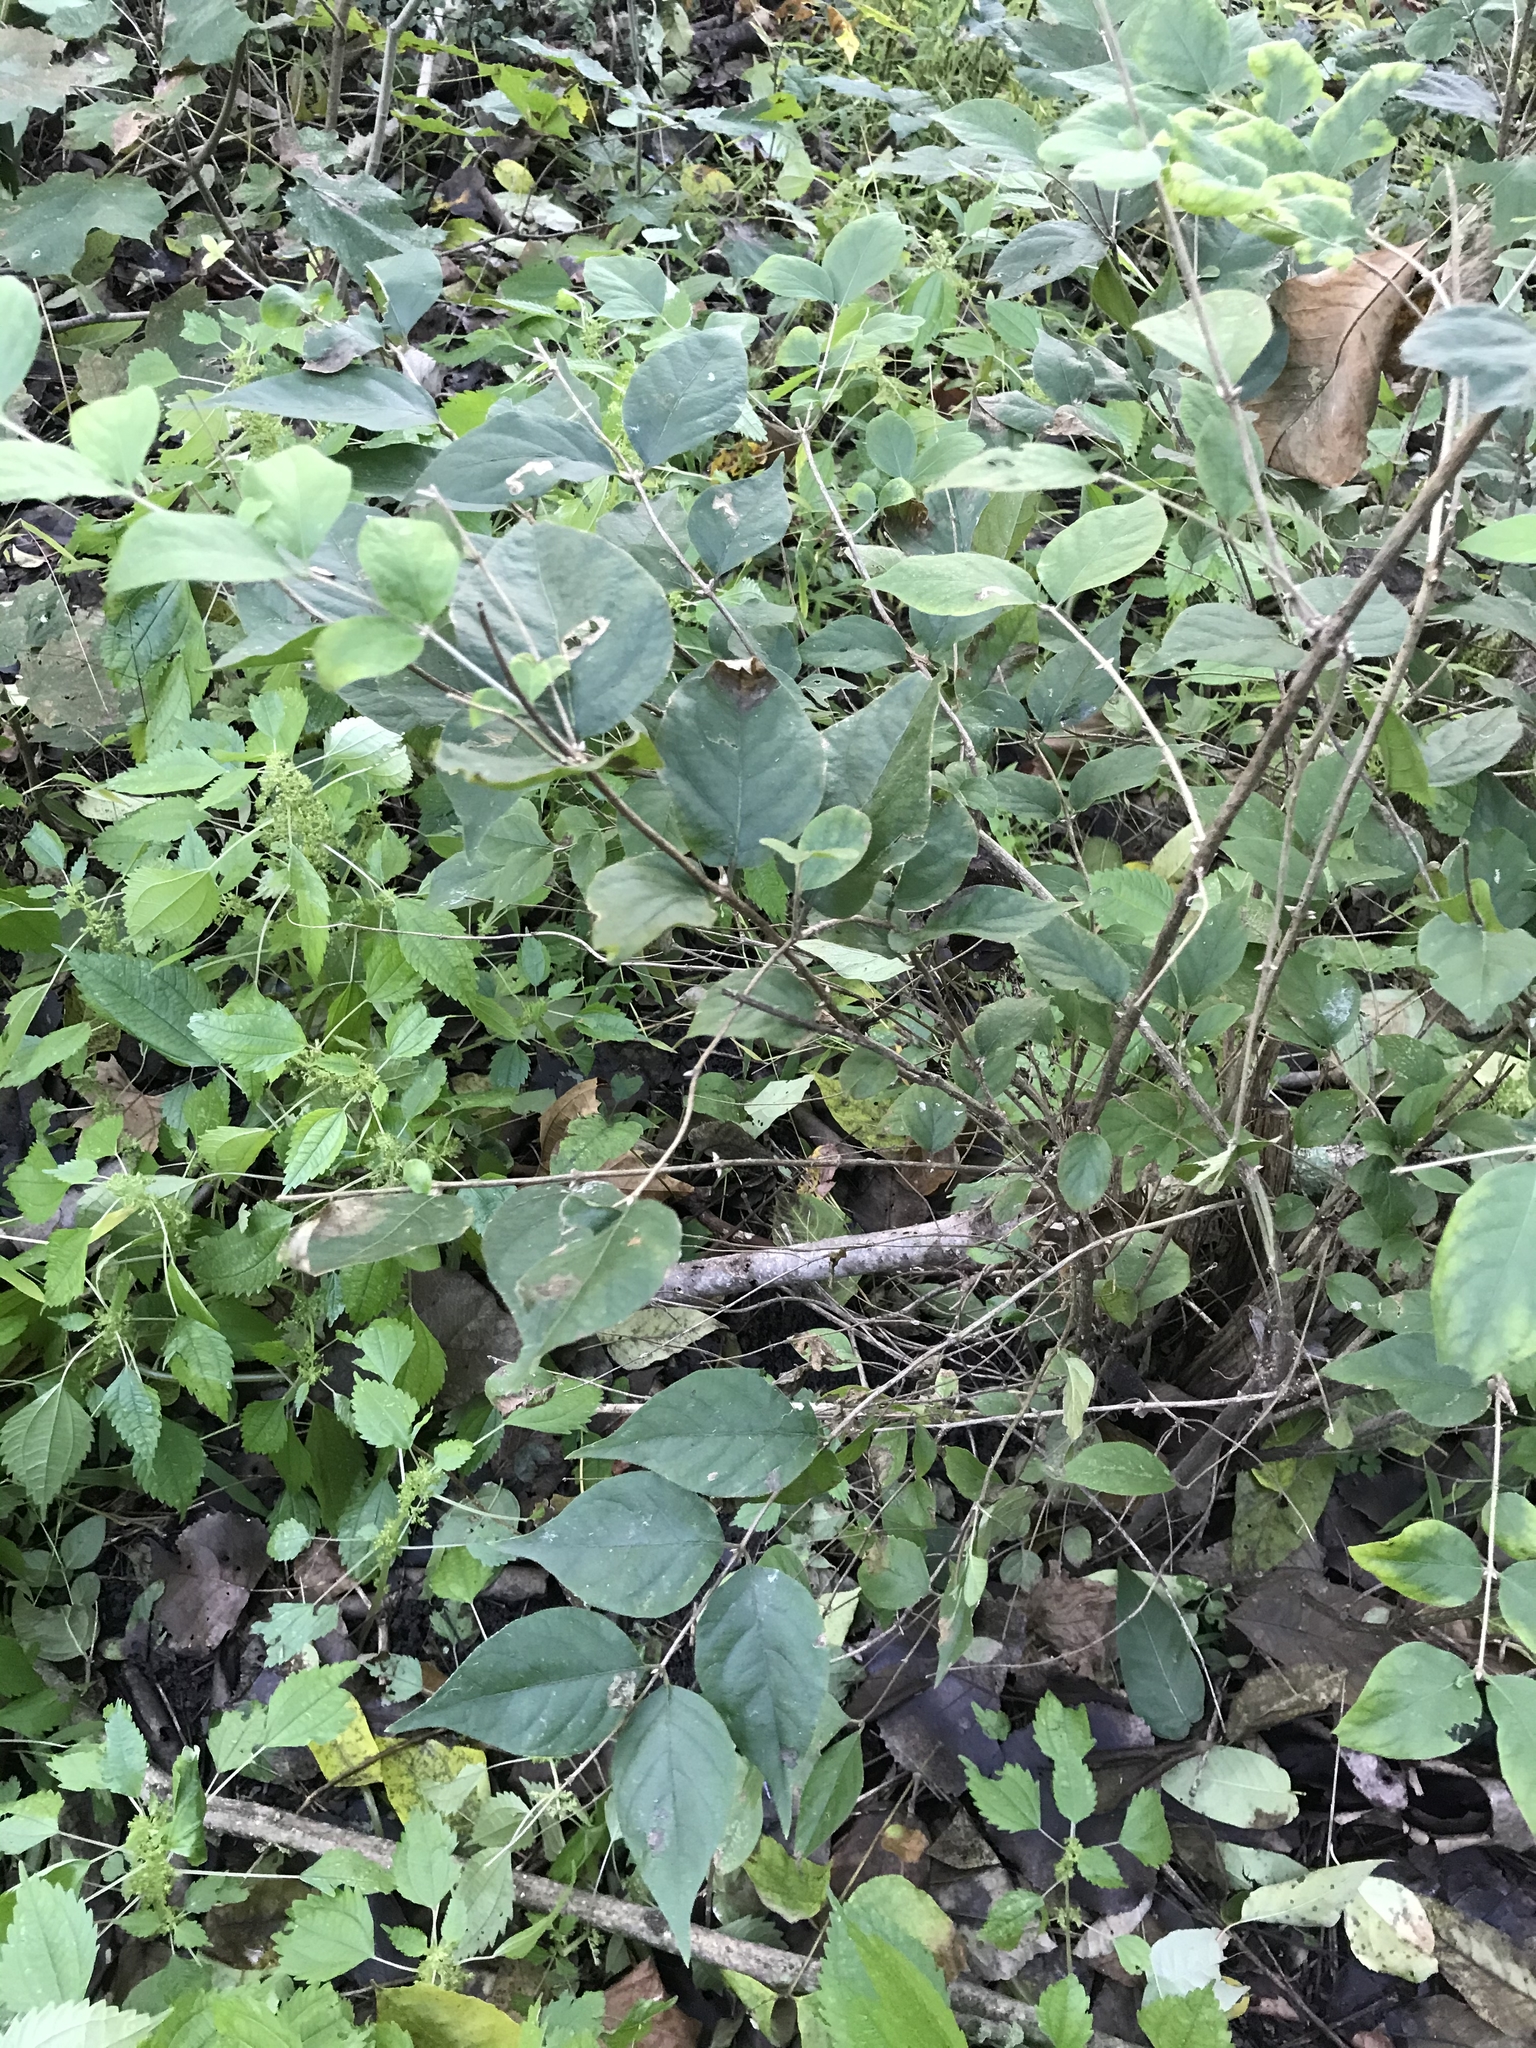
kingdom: Plantae
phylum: Tracheophyta
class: Magnoliopsida
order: Dipsacales
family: Caprifoliaceae
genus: Lonicera
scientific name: Lonicera maackii
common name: Amur honeysuckle
